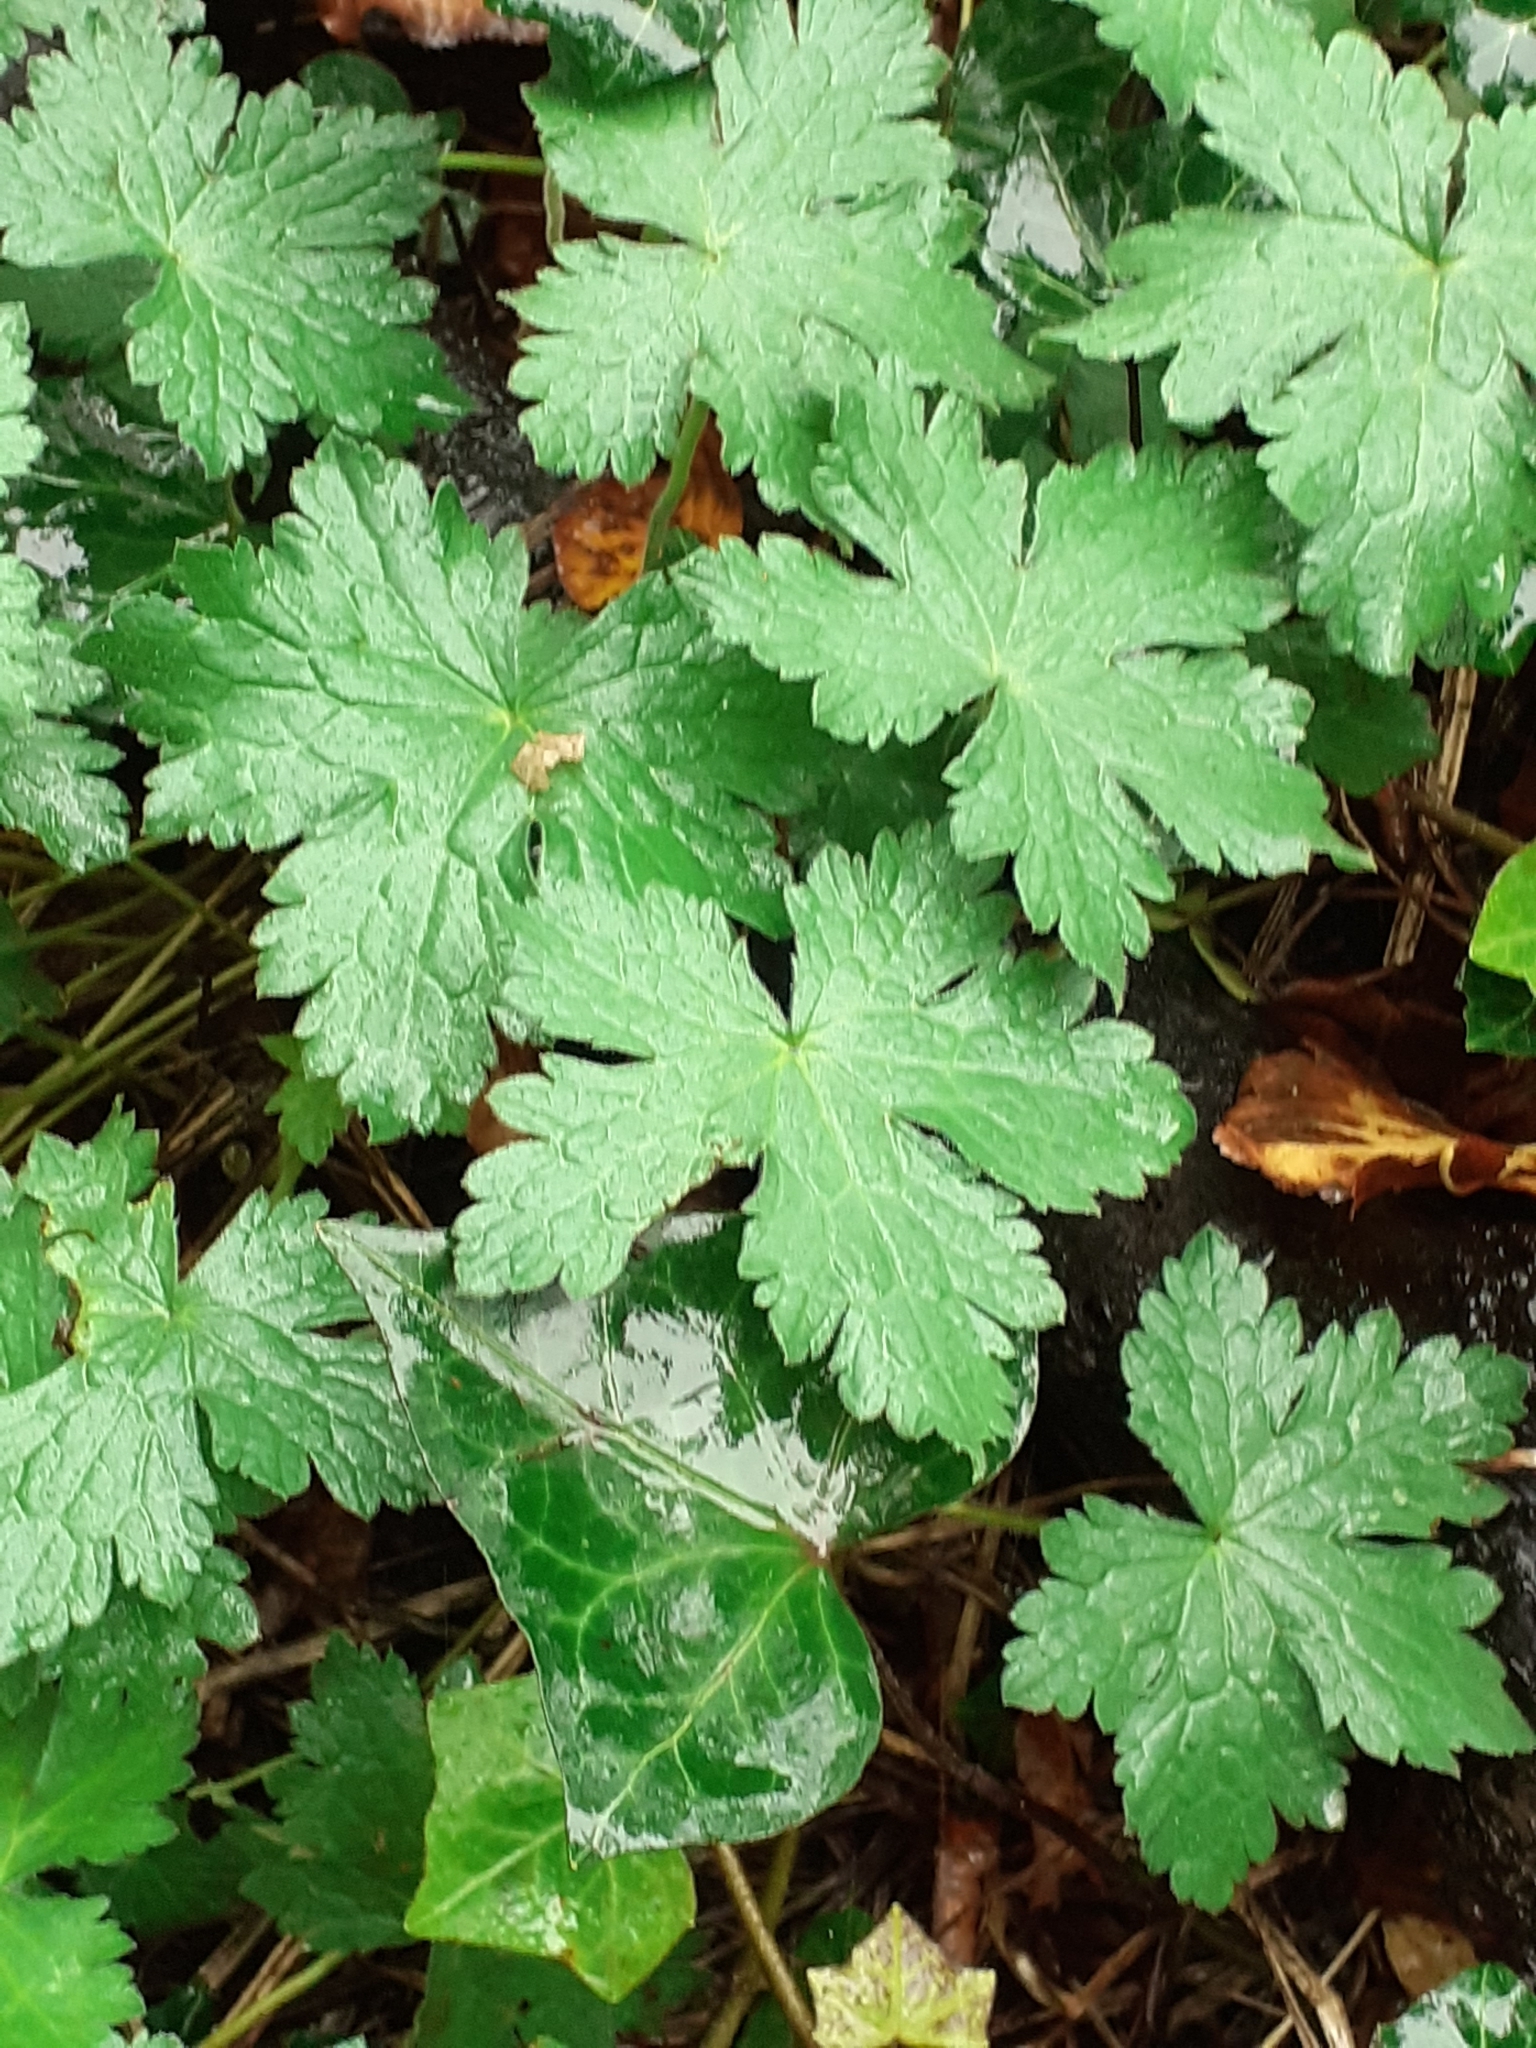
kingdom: Plantae
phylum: Tracheophyta
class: Magnoliopsida
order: Geraniales
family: Geraniaceae
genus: Geranium
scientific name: Geranium oxonianum
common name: Druce's crane's-bill
